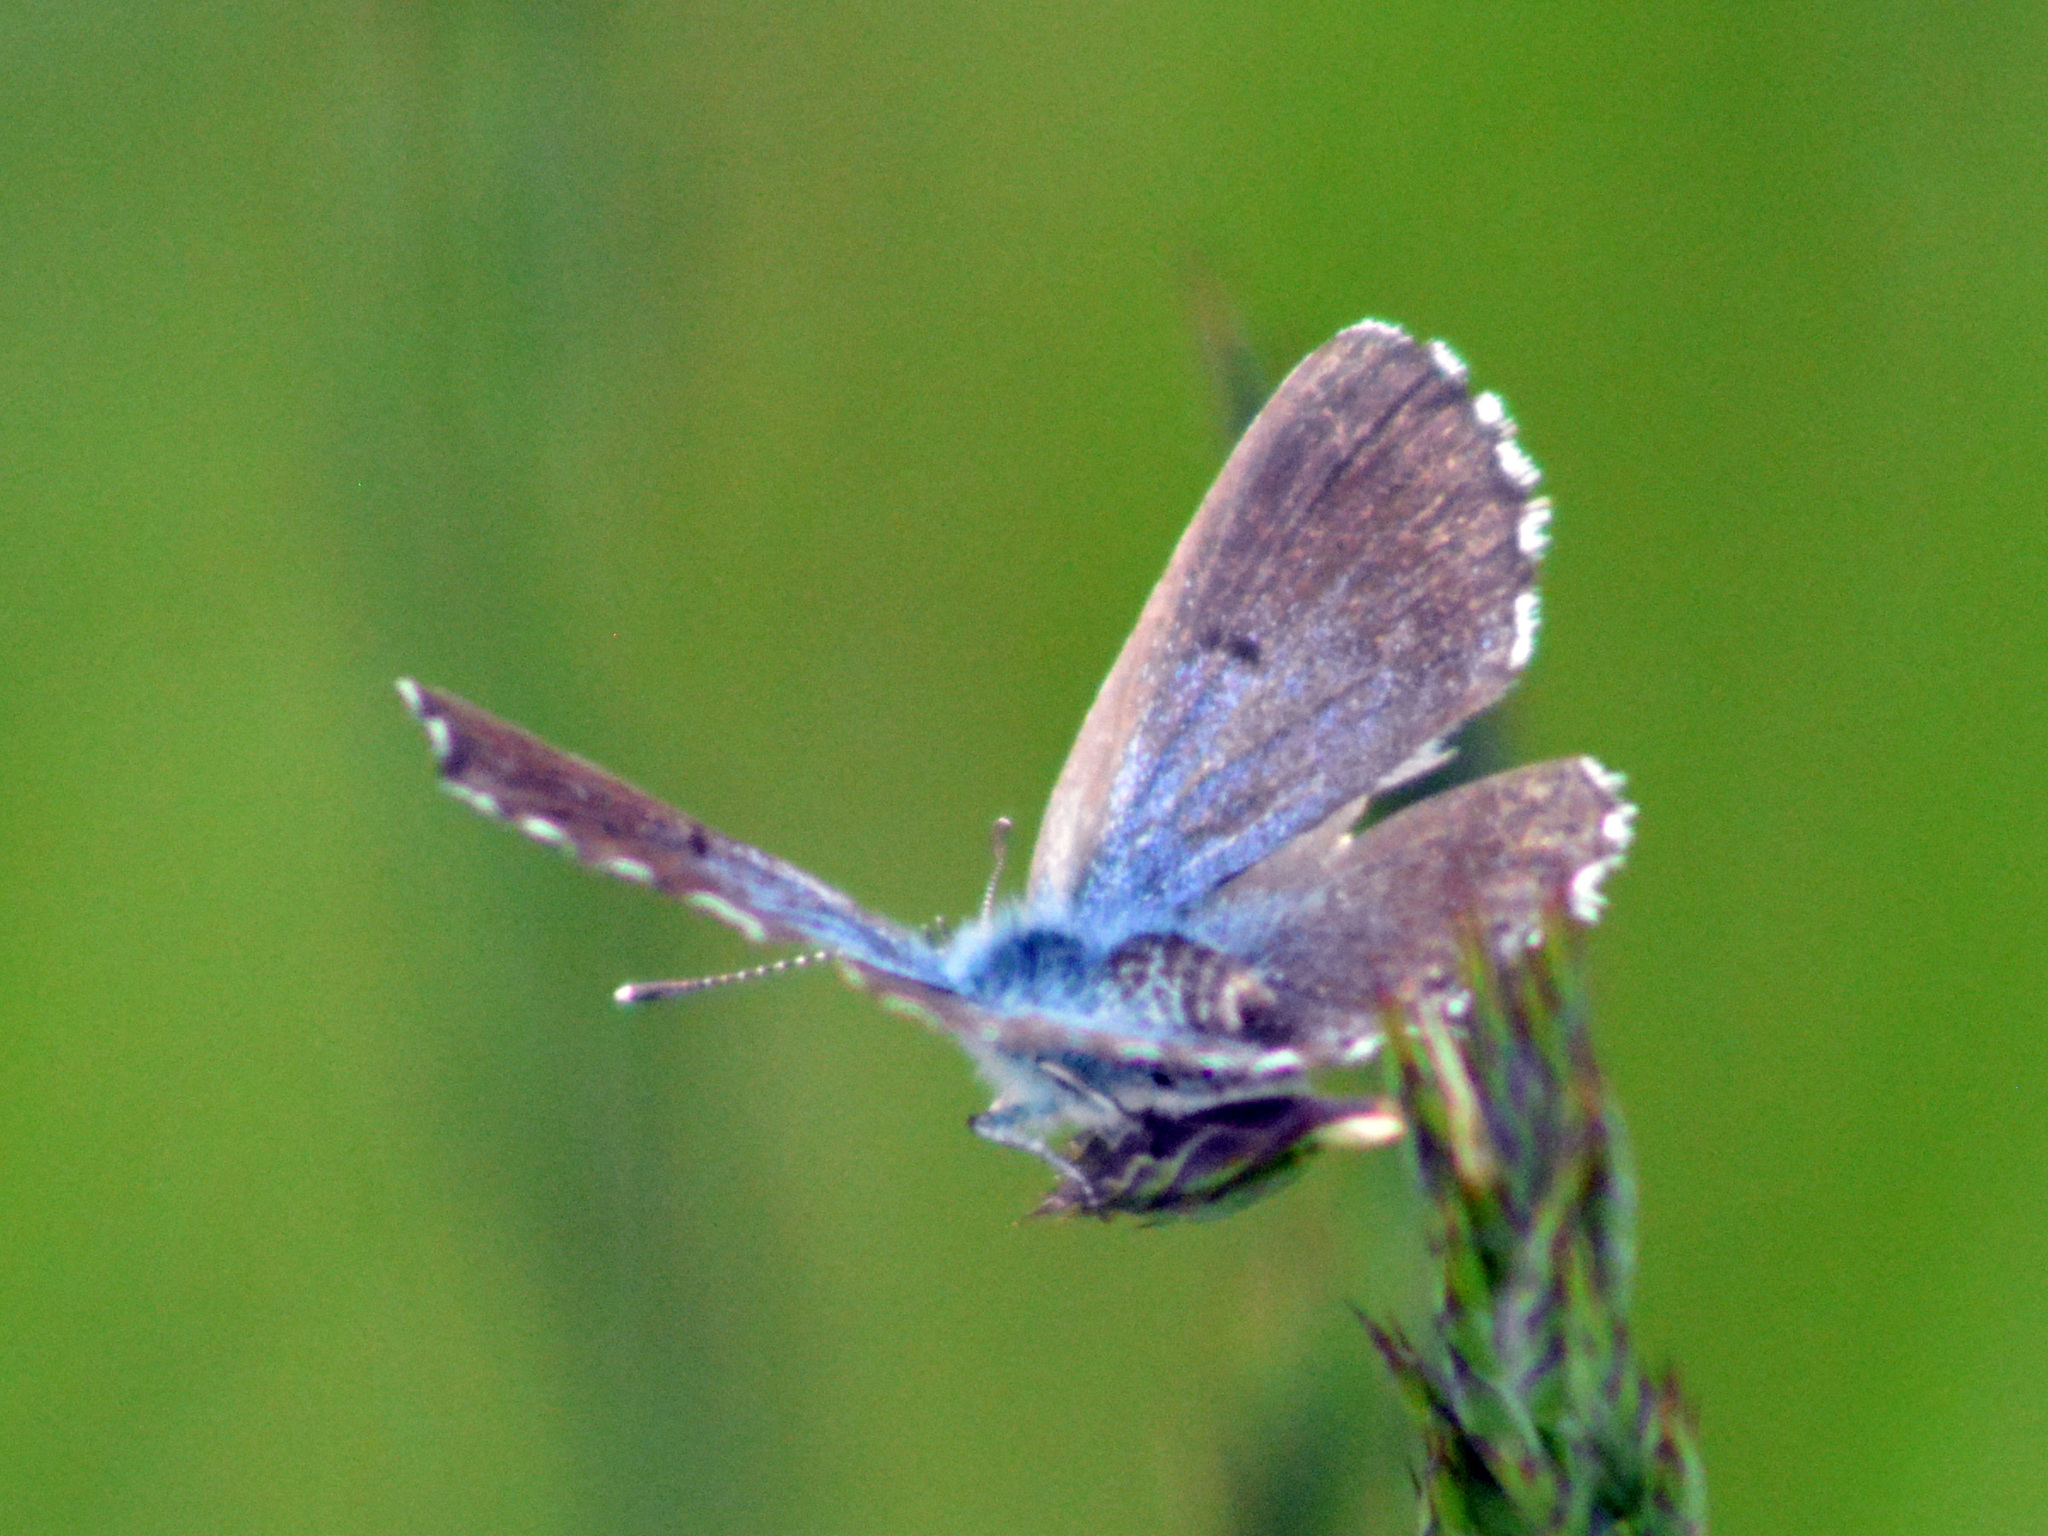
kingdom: Animalia
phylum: Arthropoda
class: Insecta
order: Lepidoptera
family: Lycaenidae
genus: Pseudophilotes
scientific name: Pseudophilotes baton
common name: Baton blue
